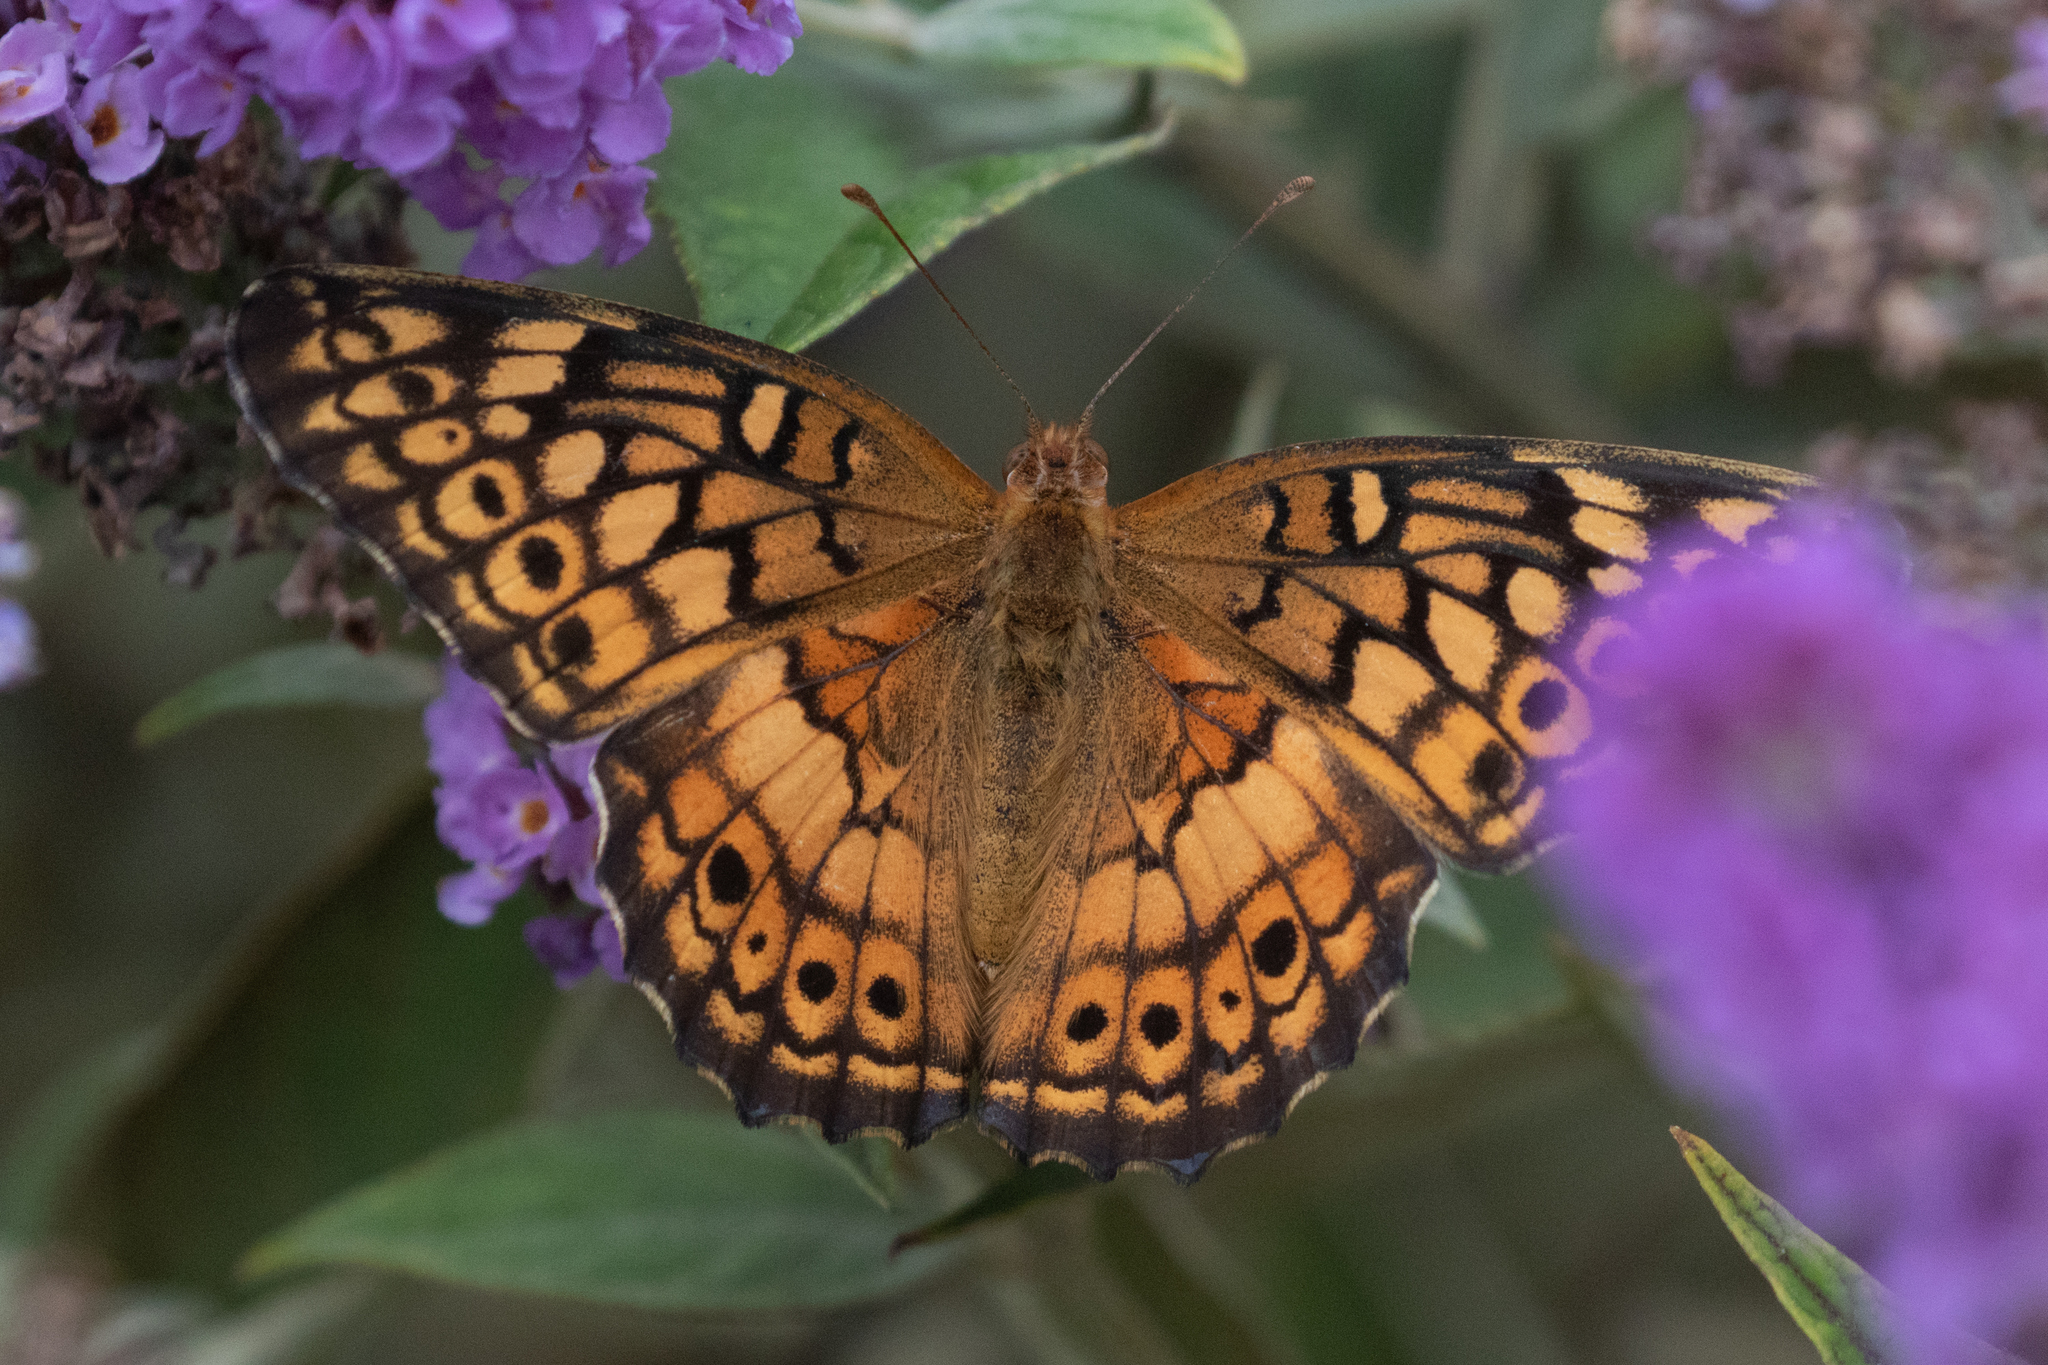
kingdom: Animalia
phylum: Arthropoda
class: Insecta
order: Lepidoptera
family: Nymphalidae
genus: Euptoieta
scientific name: Euptoieta claudia
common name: Variegated fritillary
